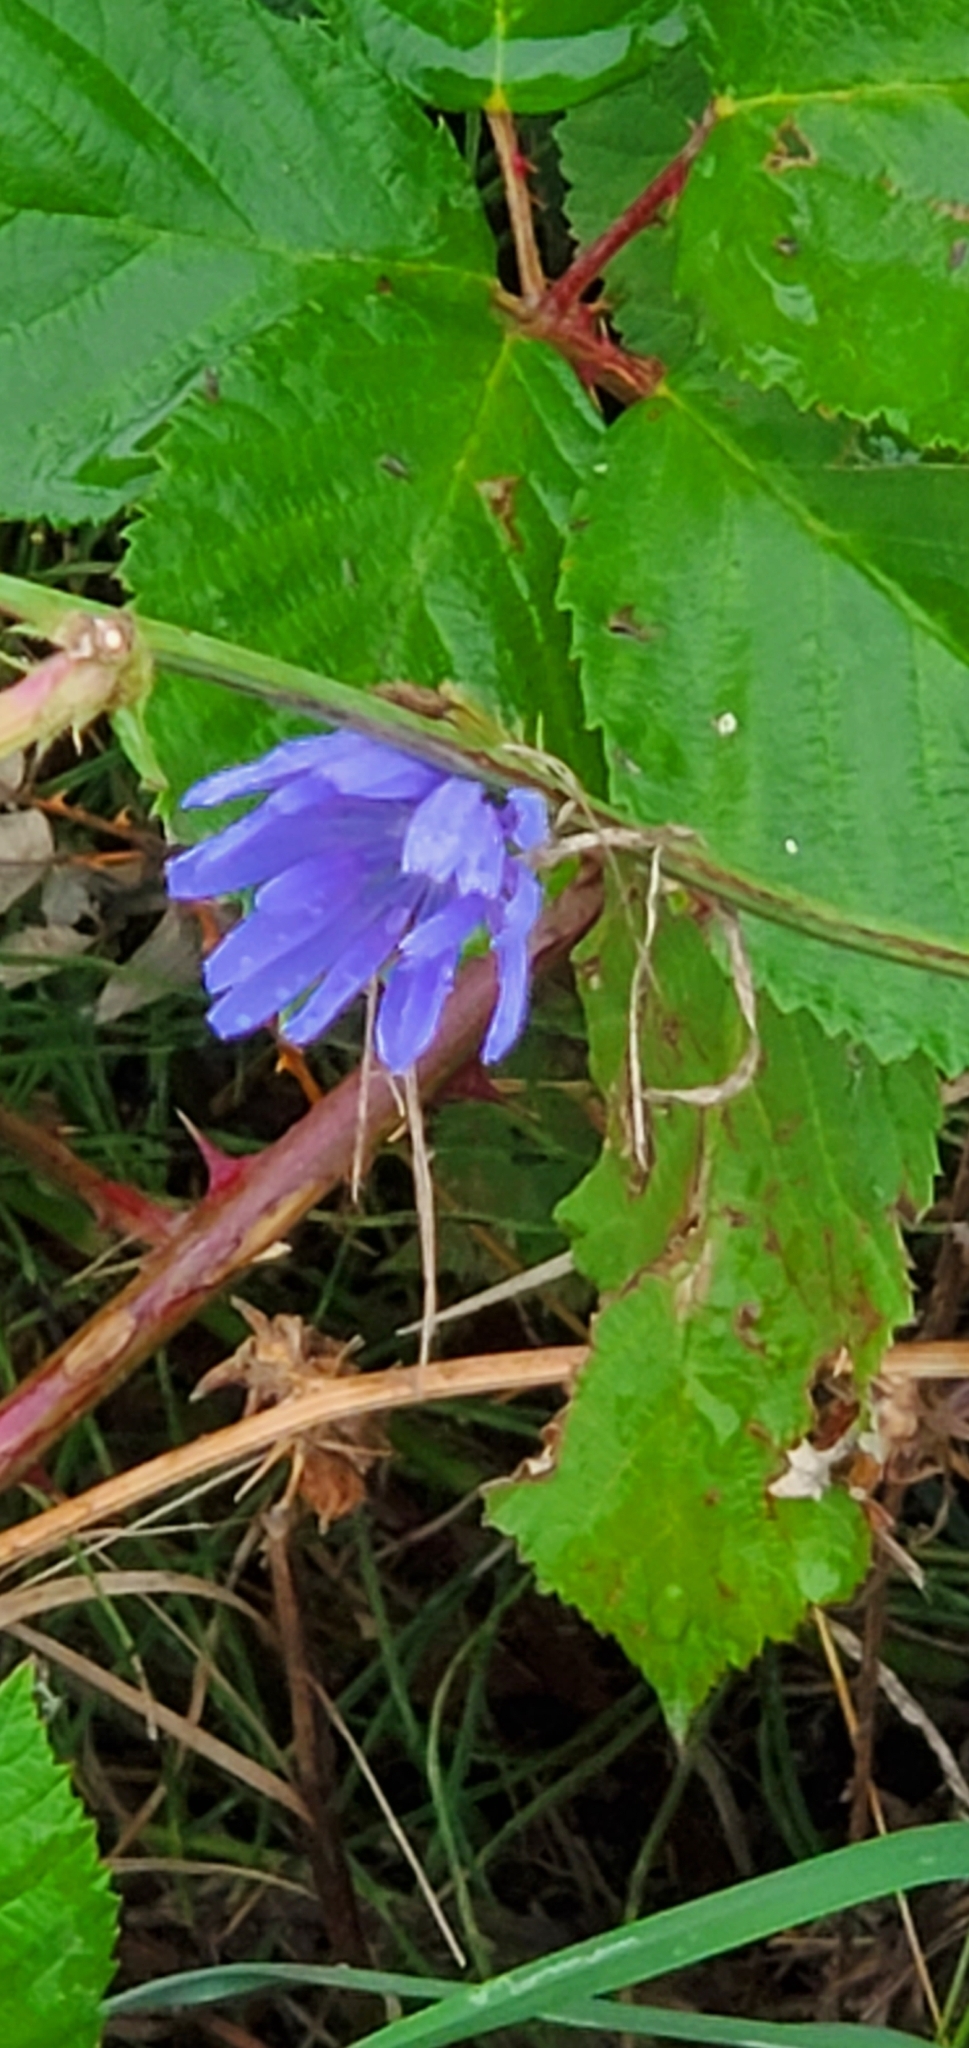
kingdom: Plantae
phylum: Tracheophyta
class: Magnoliopsida
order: Asterales
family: Asteraceae
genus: Cichorium
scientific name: Cichorium intybus
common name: Chicory
